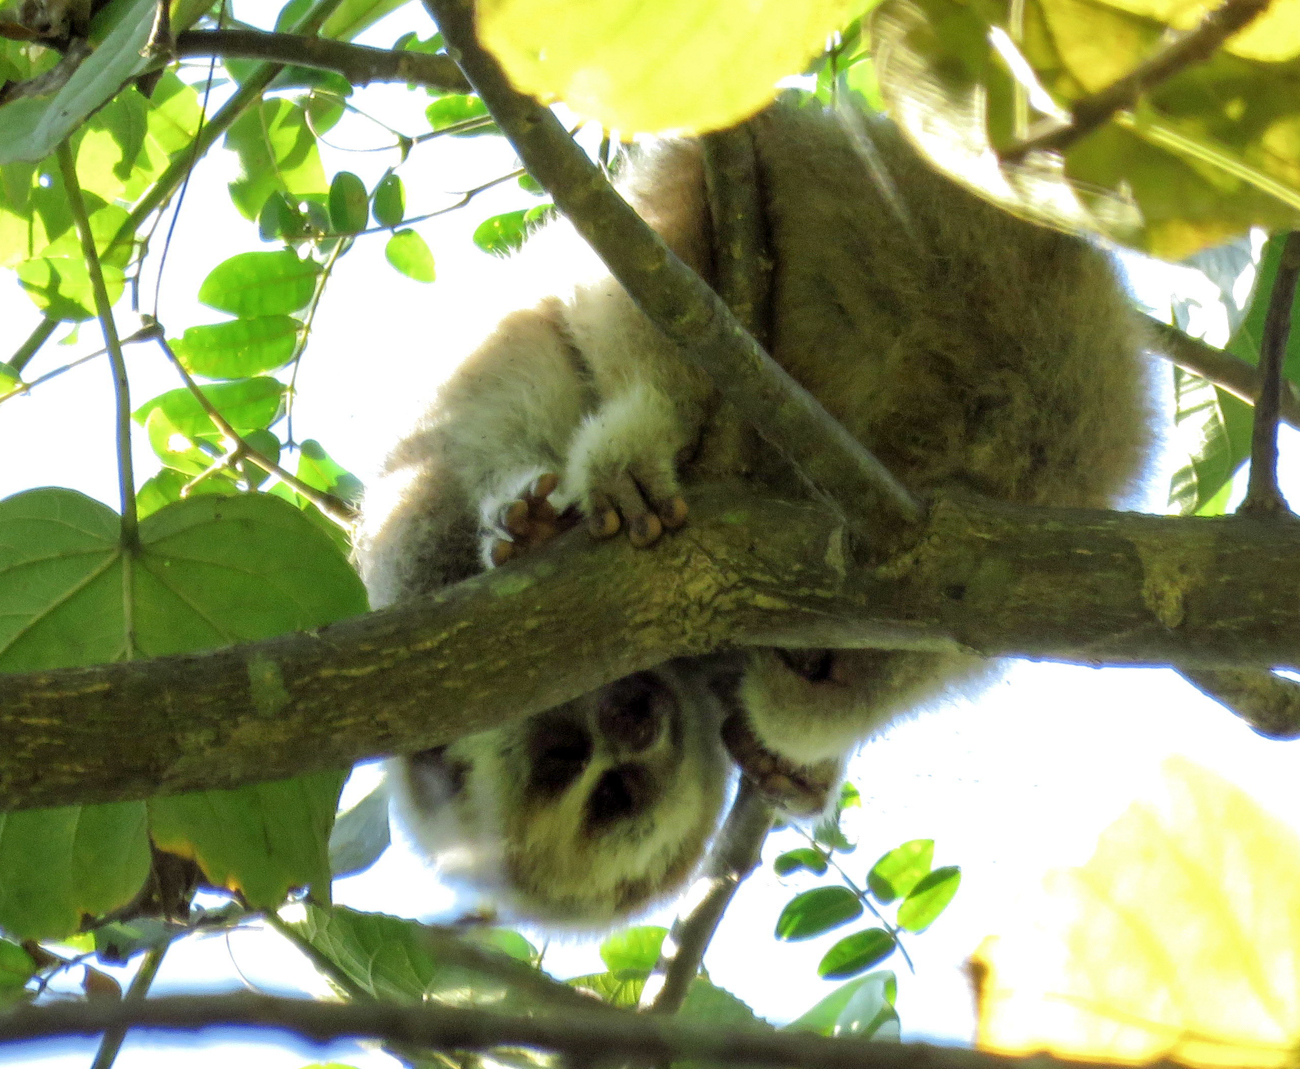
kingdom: Animalia
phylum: Chordata
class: Mammalia
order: Primates
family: Lorisidae
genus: Nycticebus
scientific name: Nycticebus bengalensis
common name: Bengal slow loris
